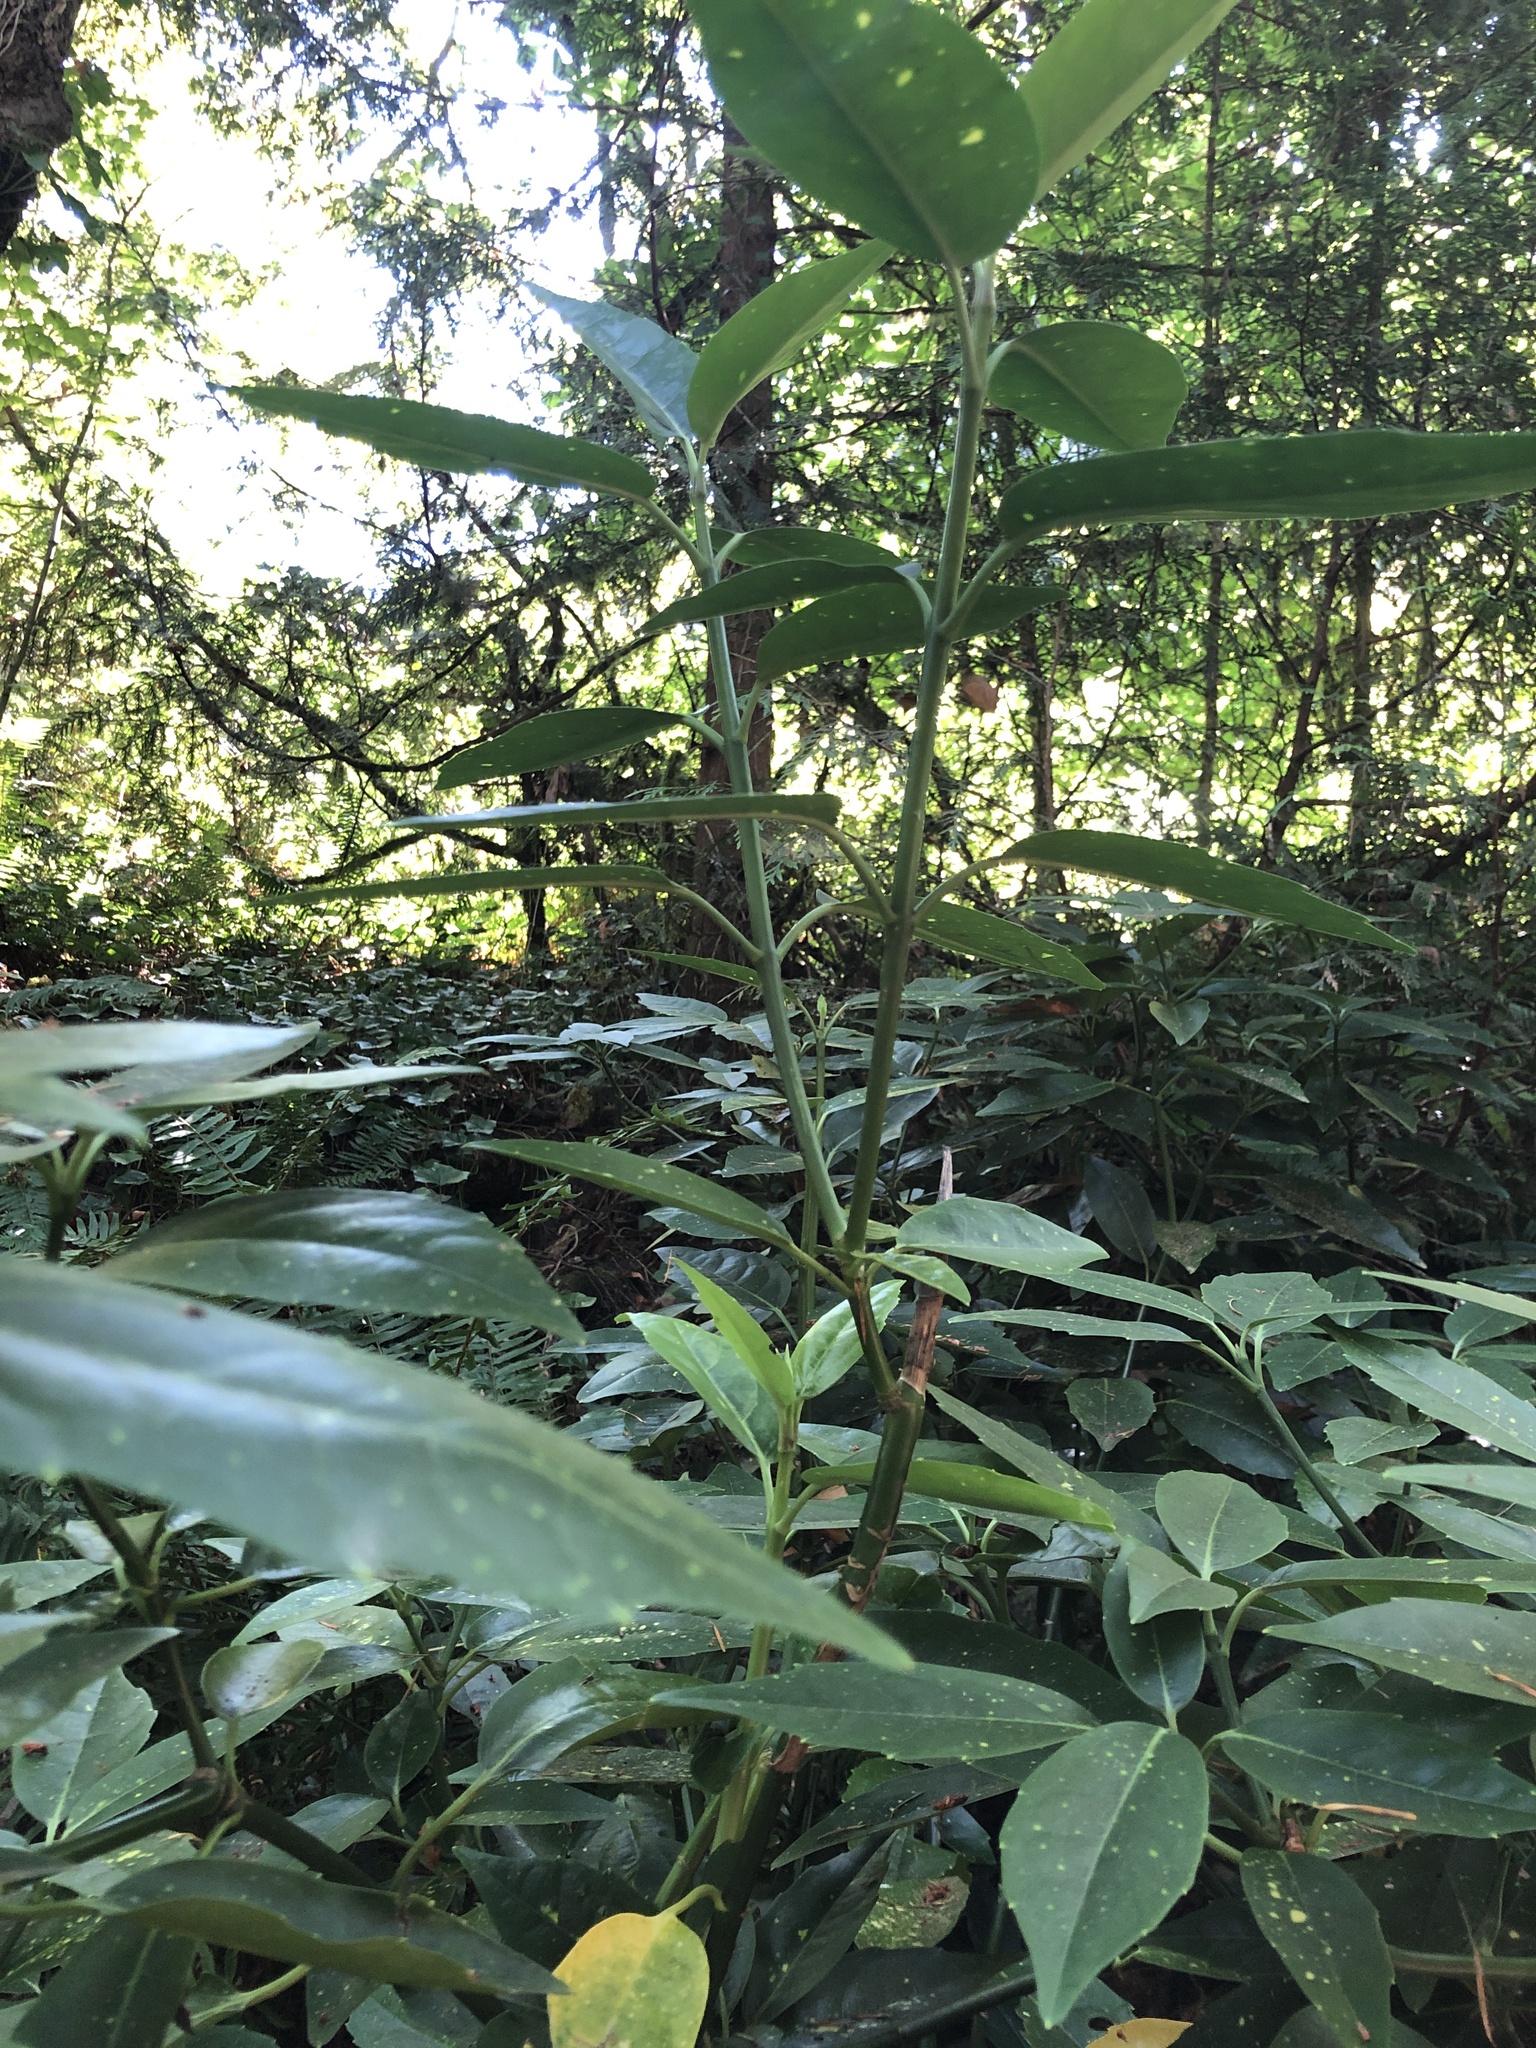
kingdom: Plantae
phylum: Tracheophyta
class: Magnoliopsida
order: Garryales
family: Garryaceae
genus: Aucuba
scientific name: Aucuba japonica
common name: Spotted-laurel
